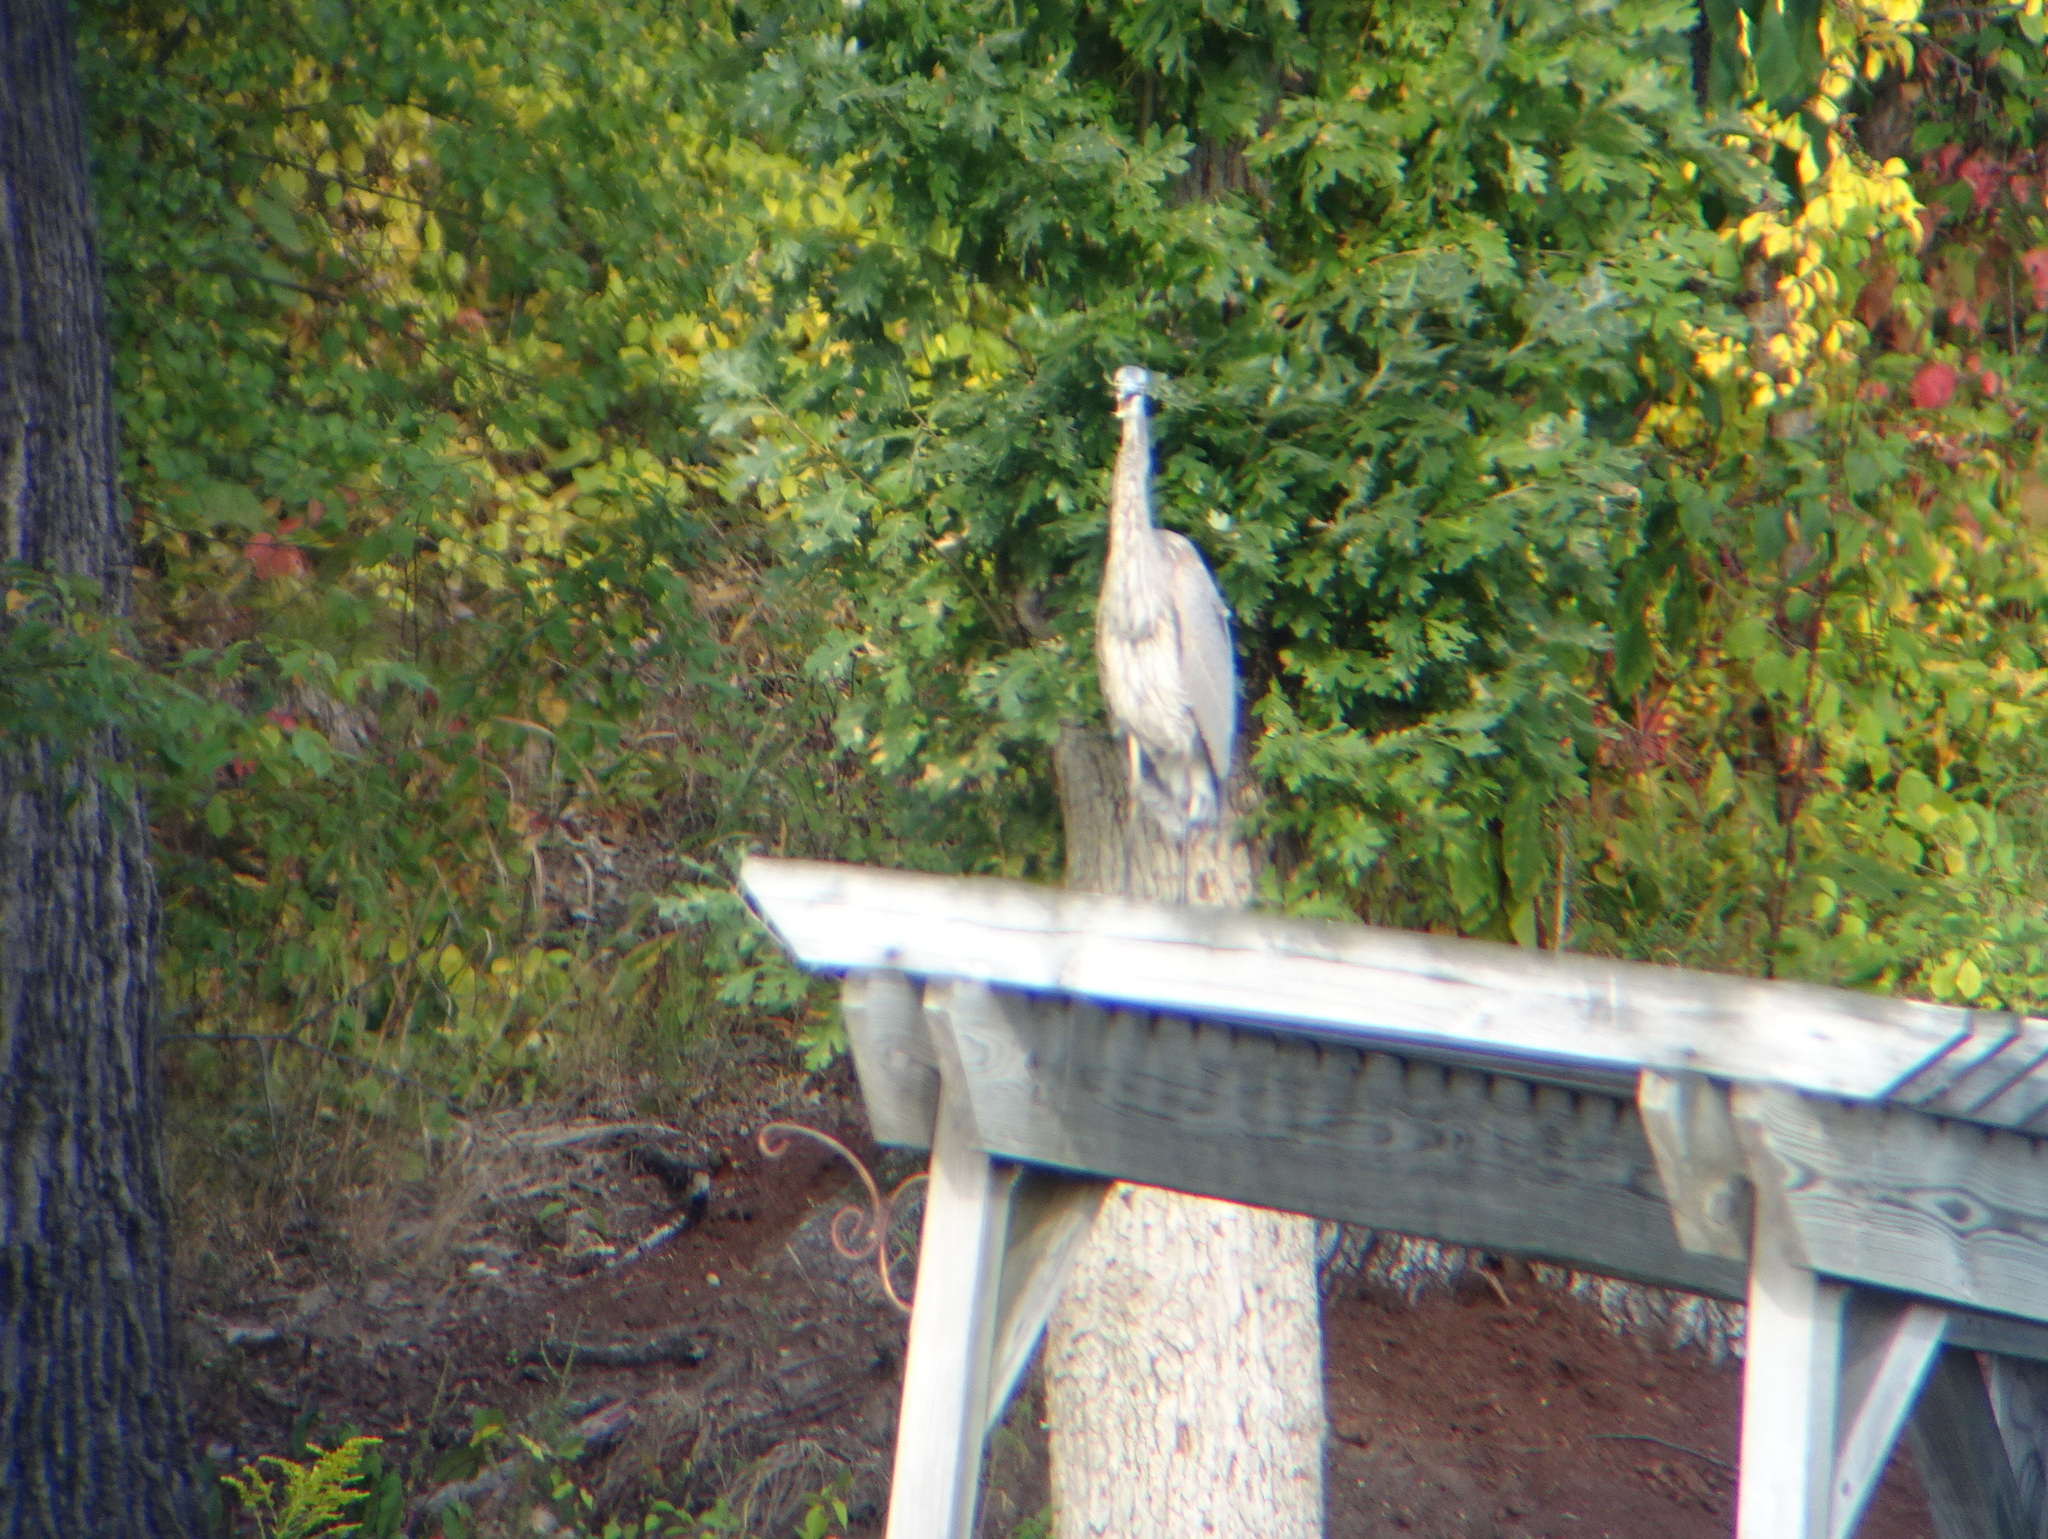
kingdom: Animalia
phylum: Chordata
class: Aves
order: Pelecaniformes
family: Ardeidae
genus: Ardea
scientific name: Ardea herodias
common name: Great blue heron
